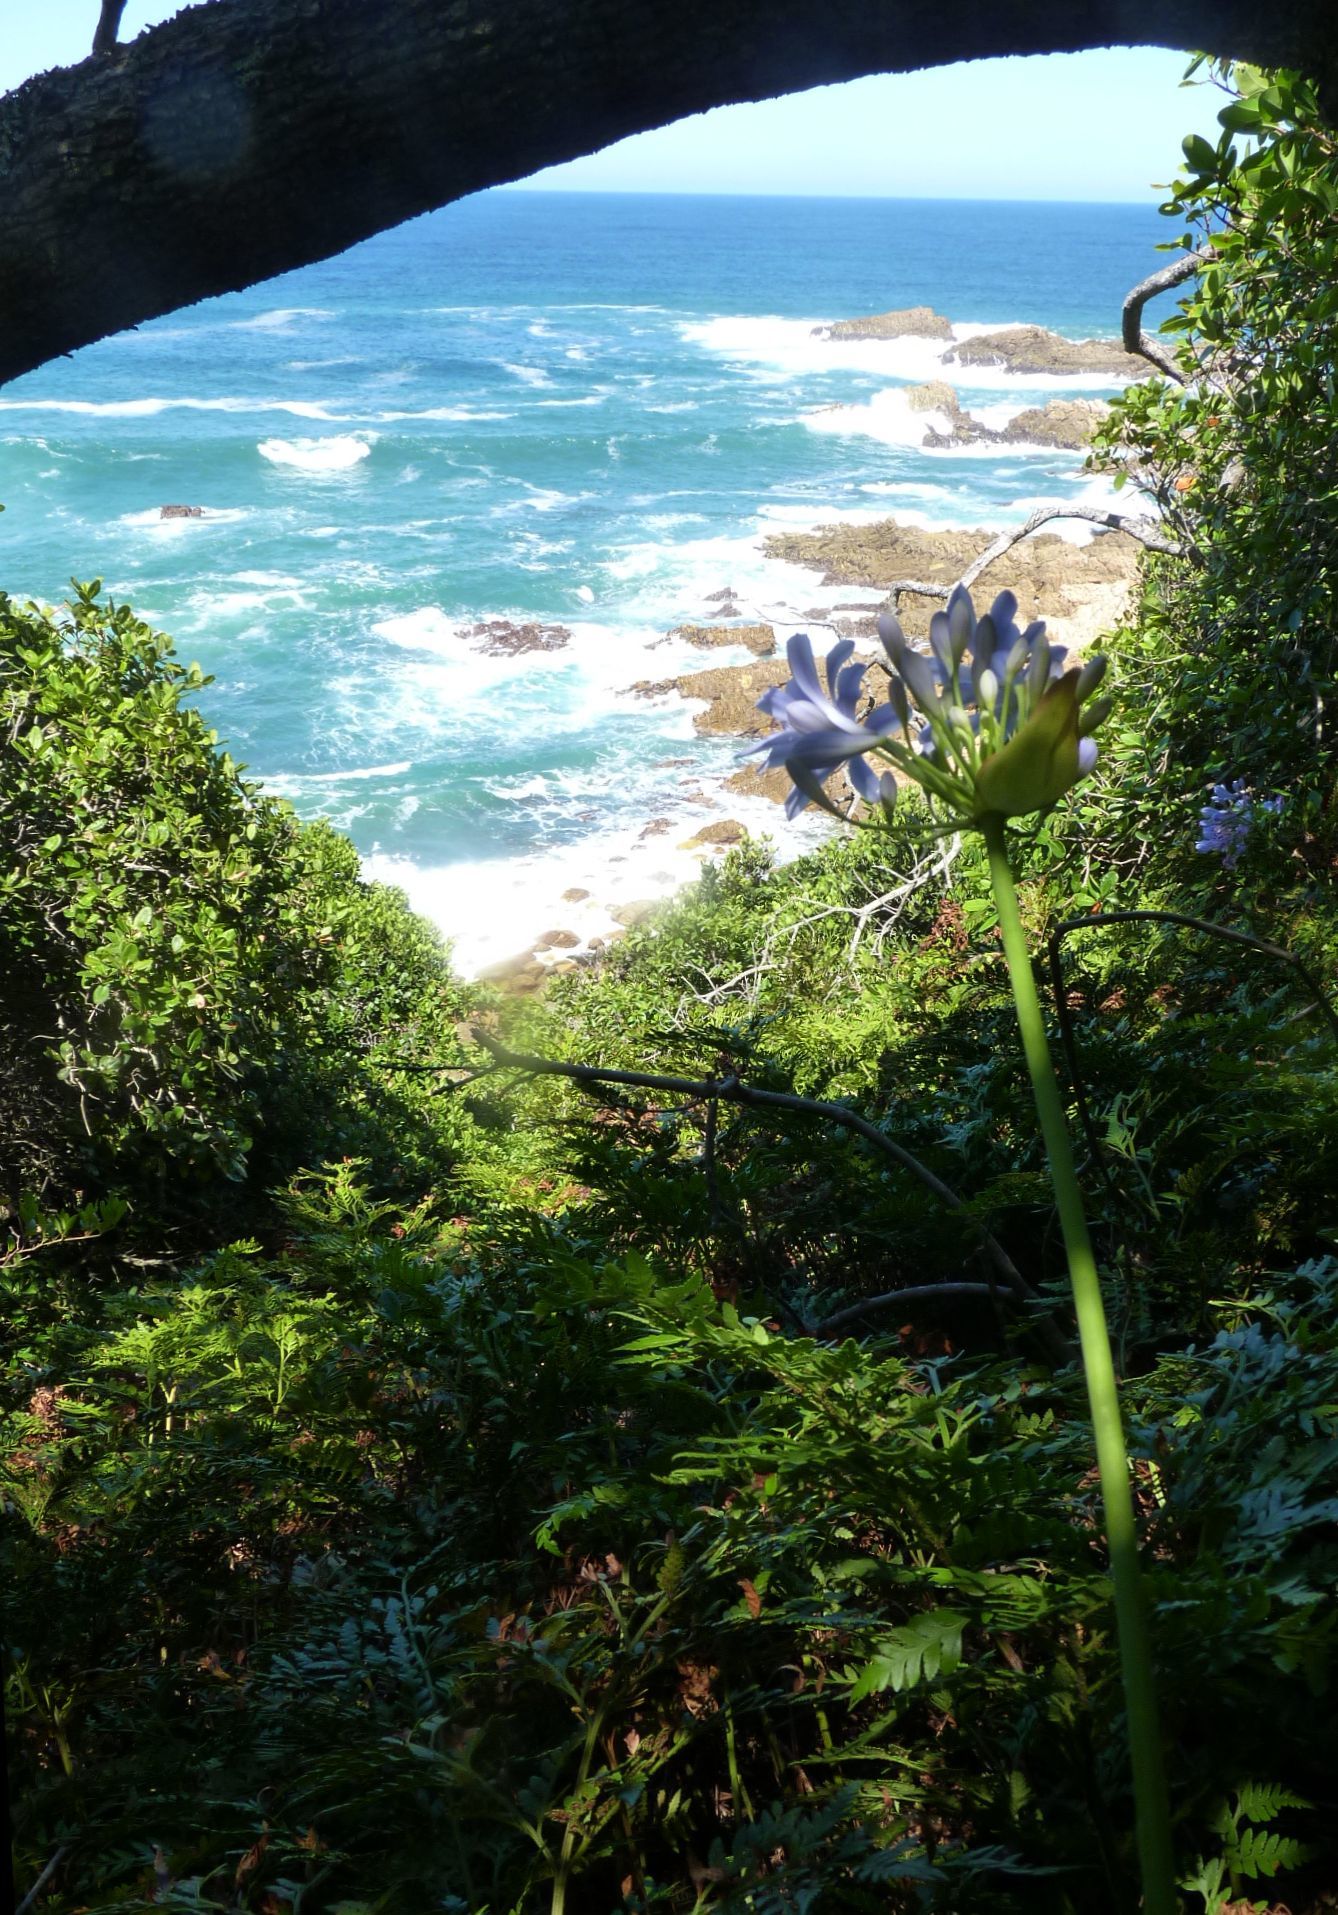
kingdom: Plantae
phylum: Tracheophyta
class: Liliopsida
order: Asparagales
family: Amaryllidaceae
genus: Agapanthus
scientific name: Agapanthus praecox
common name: African-lily
